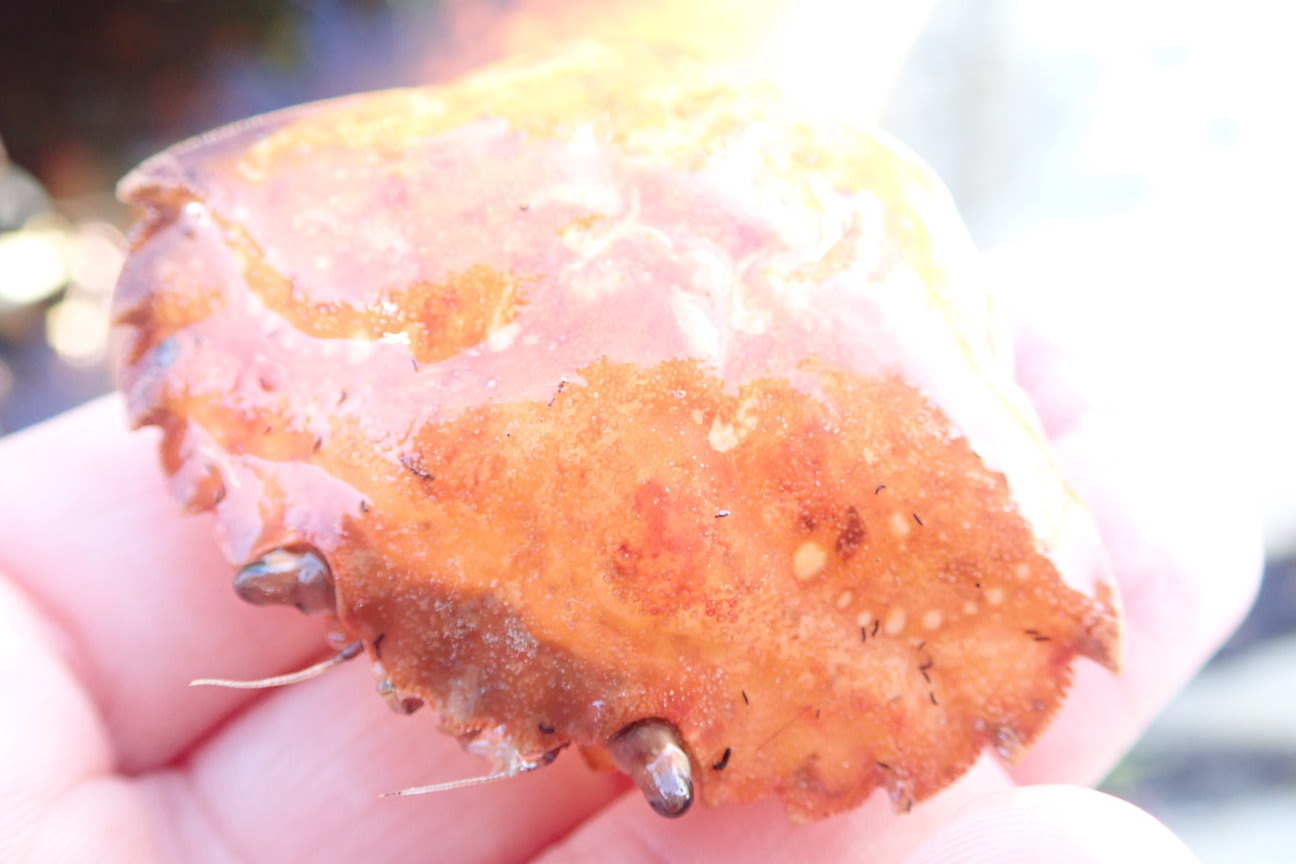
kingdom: Animalia
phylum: Arthropoda
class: Malacostraca
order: Decapoda
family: Carcinidae
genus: Carcinus
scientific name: Carcinus maenas
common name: European green crab
